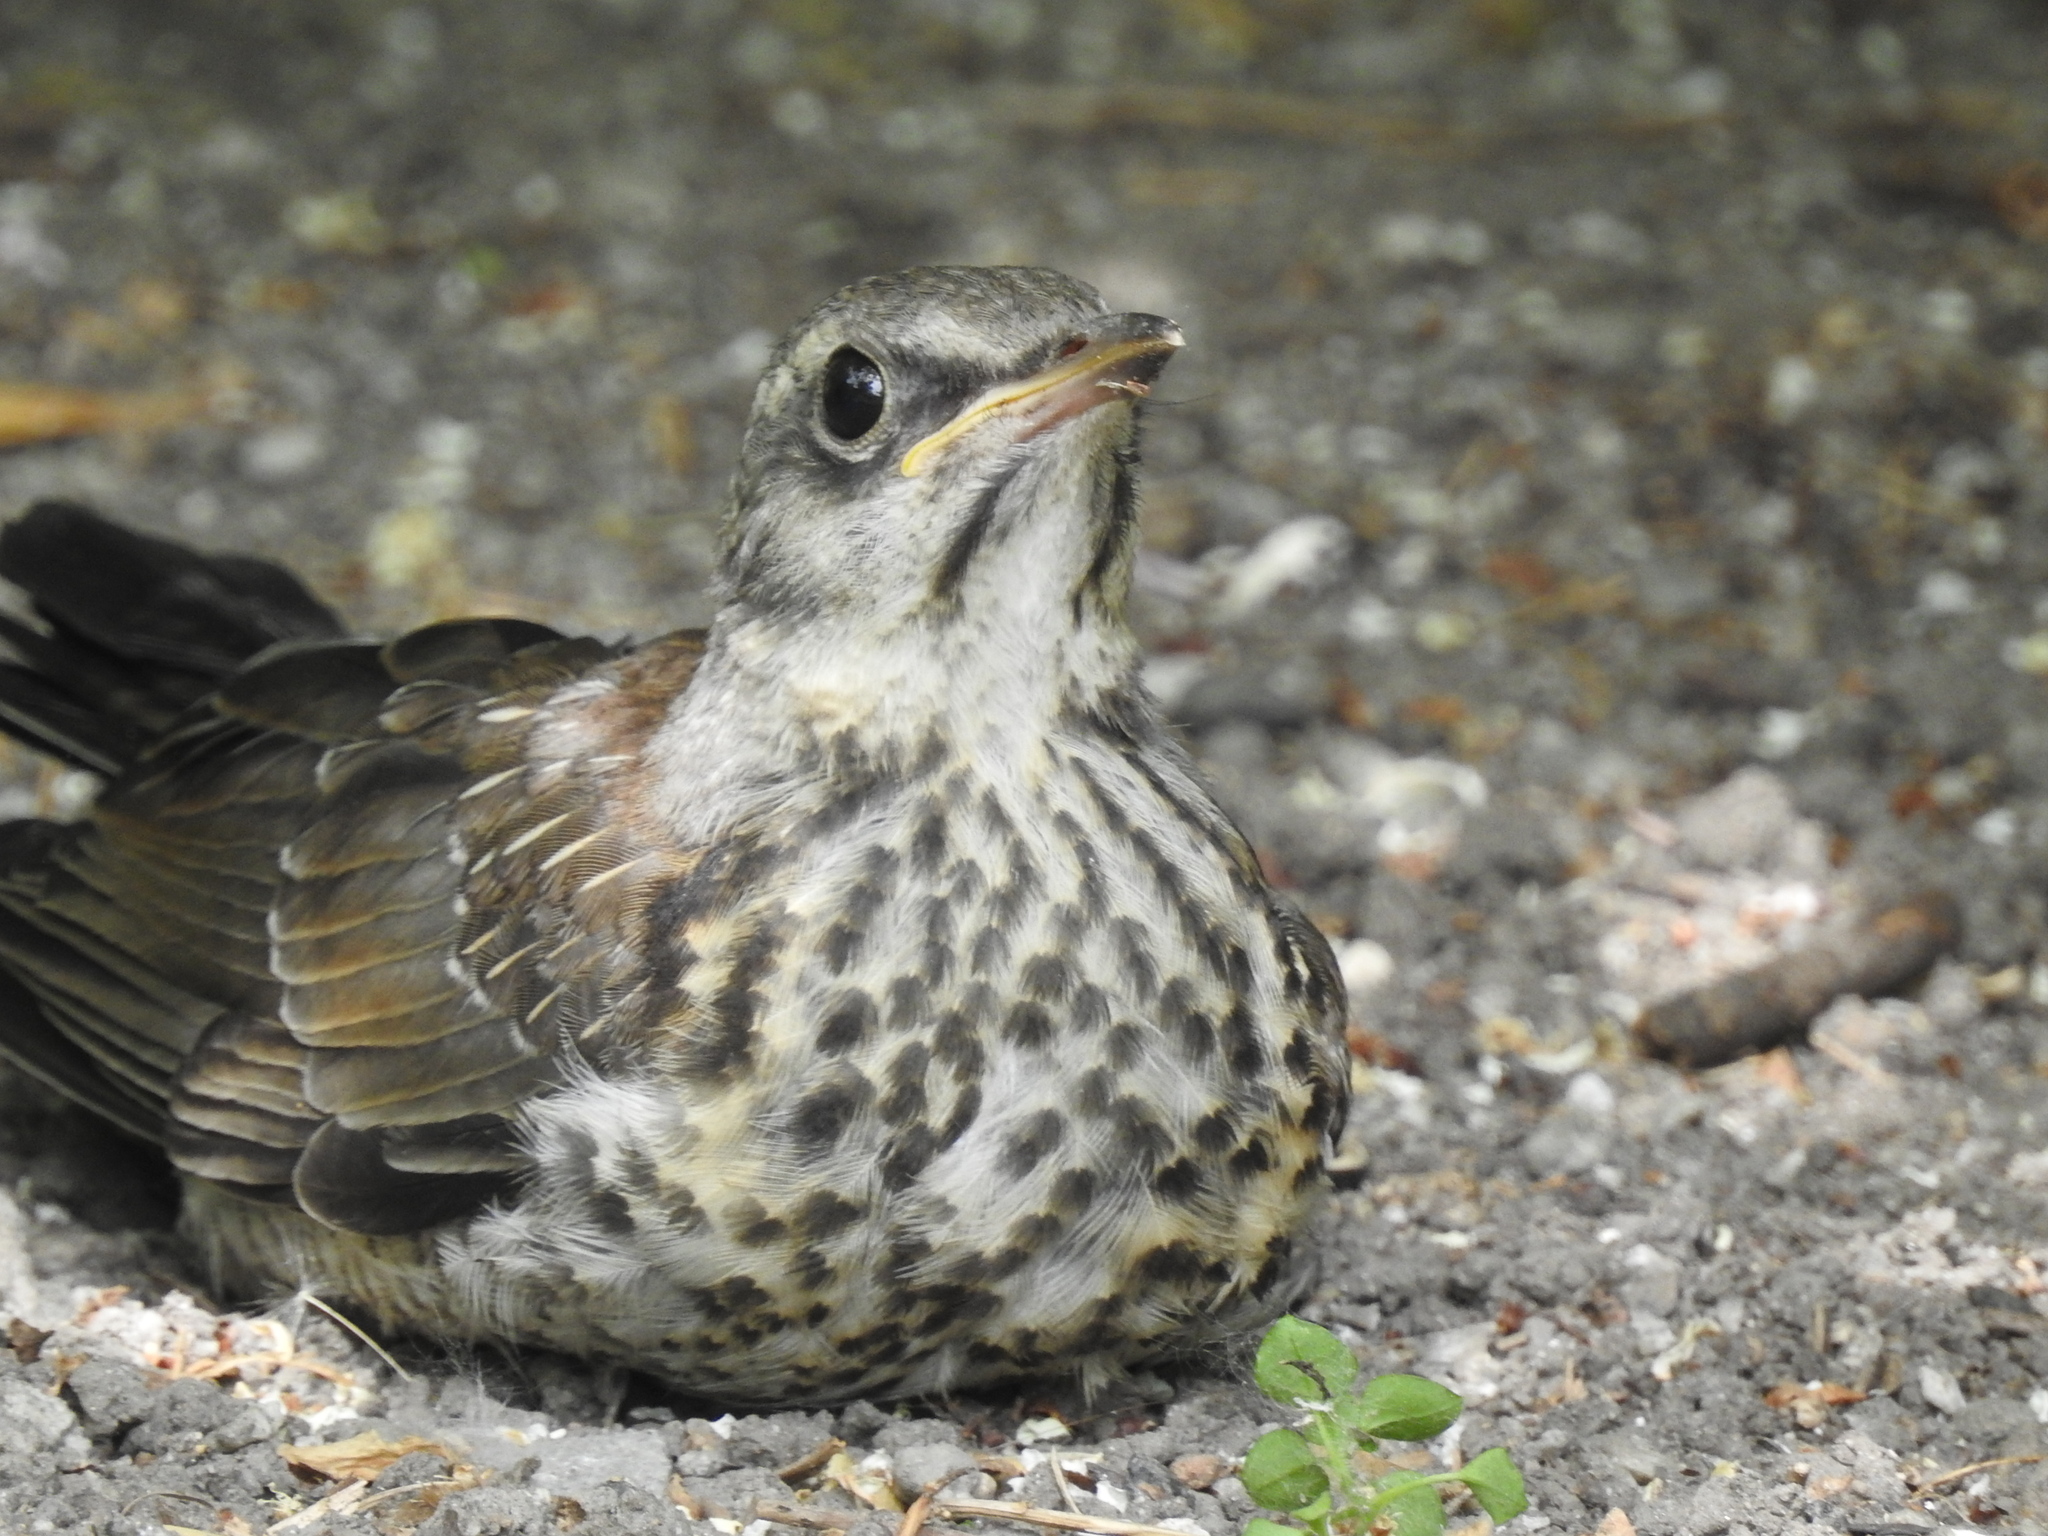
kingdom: Animalia
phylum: Chordata
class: Aves
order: Passeriformes
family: Turdidae
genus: Turdus
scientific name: Turdus pilaris
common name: Fieldfare
